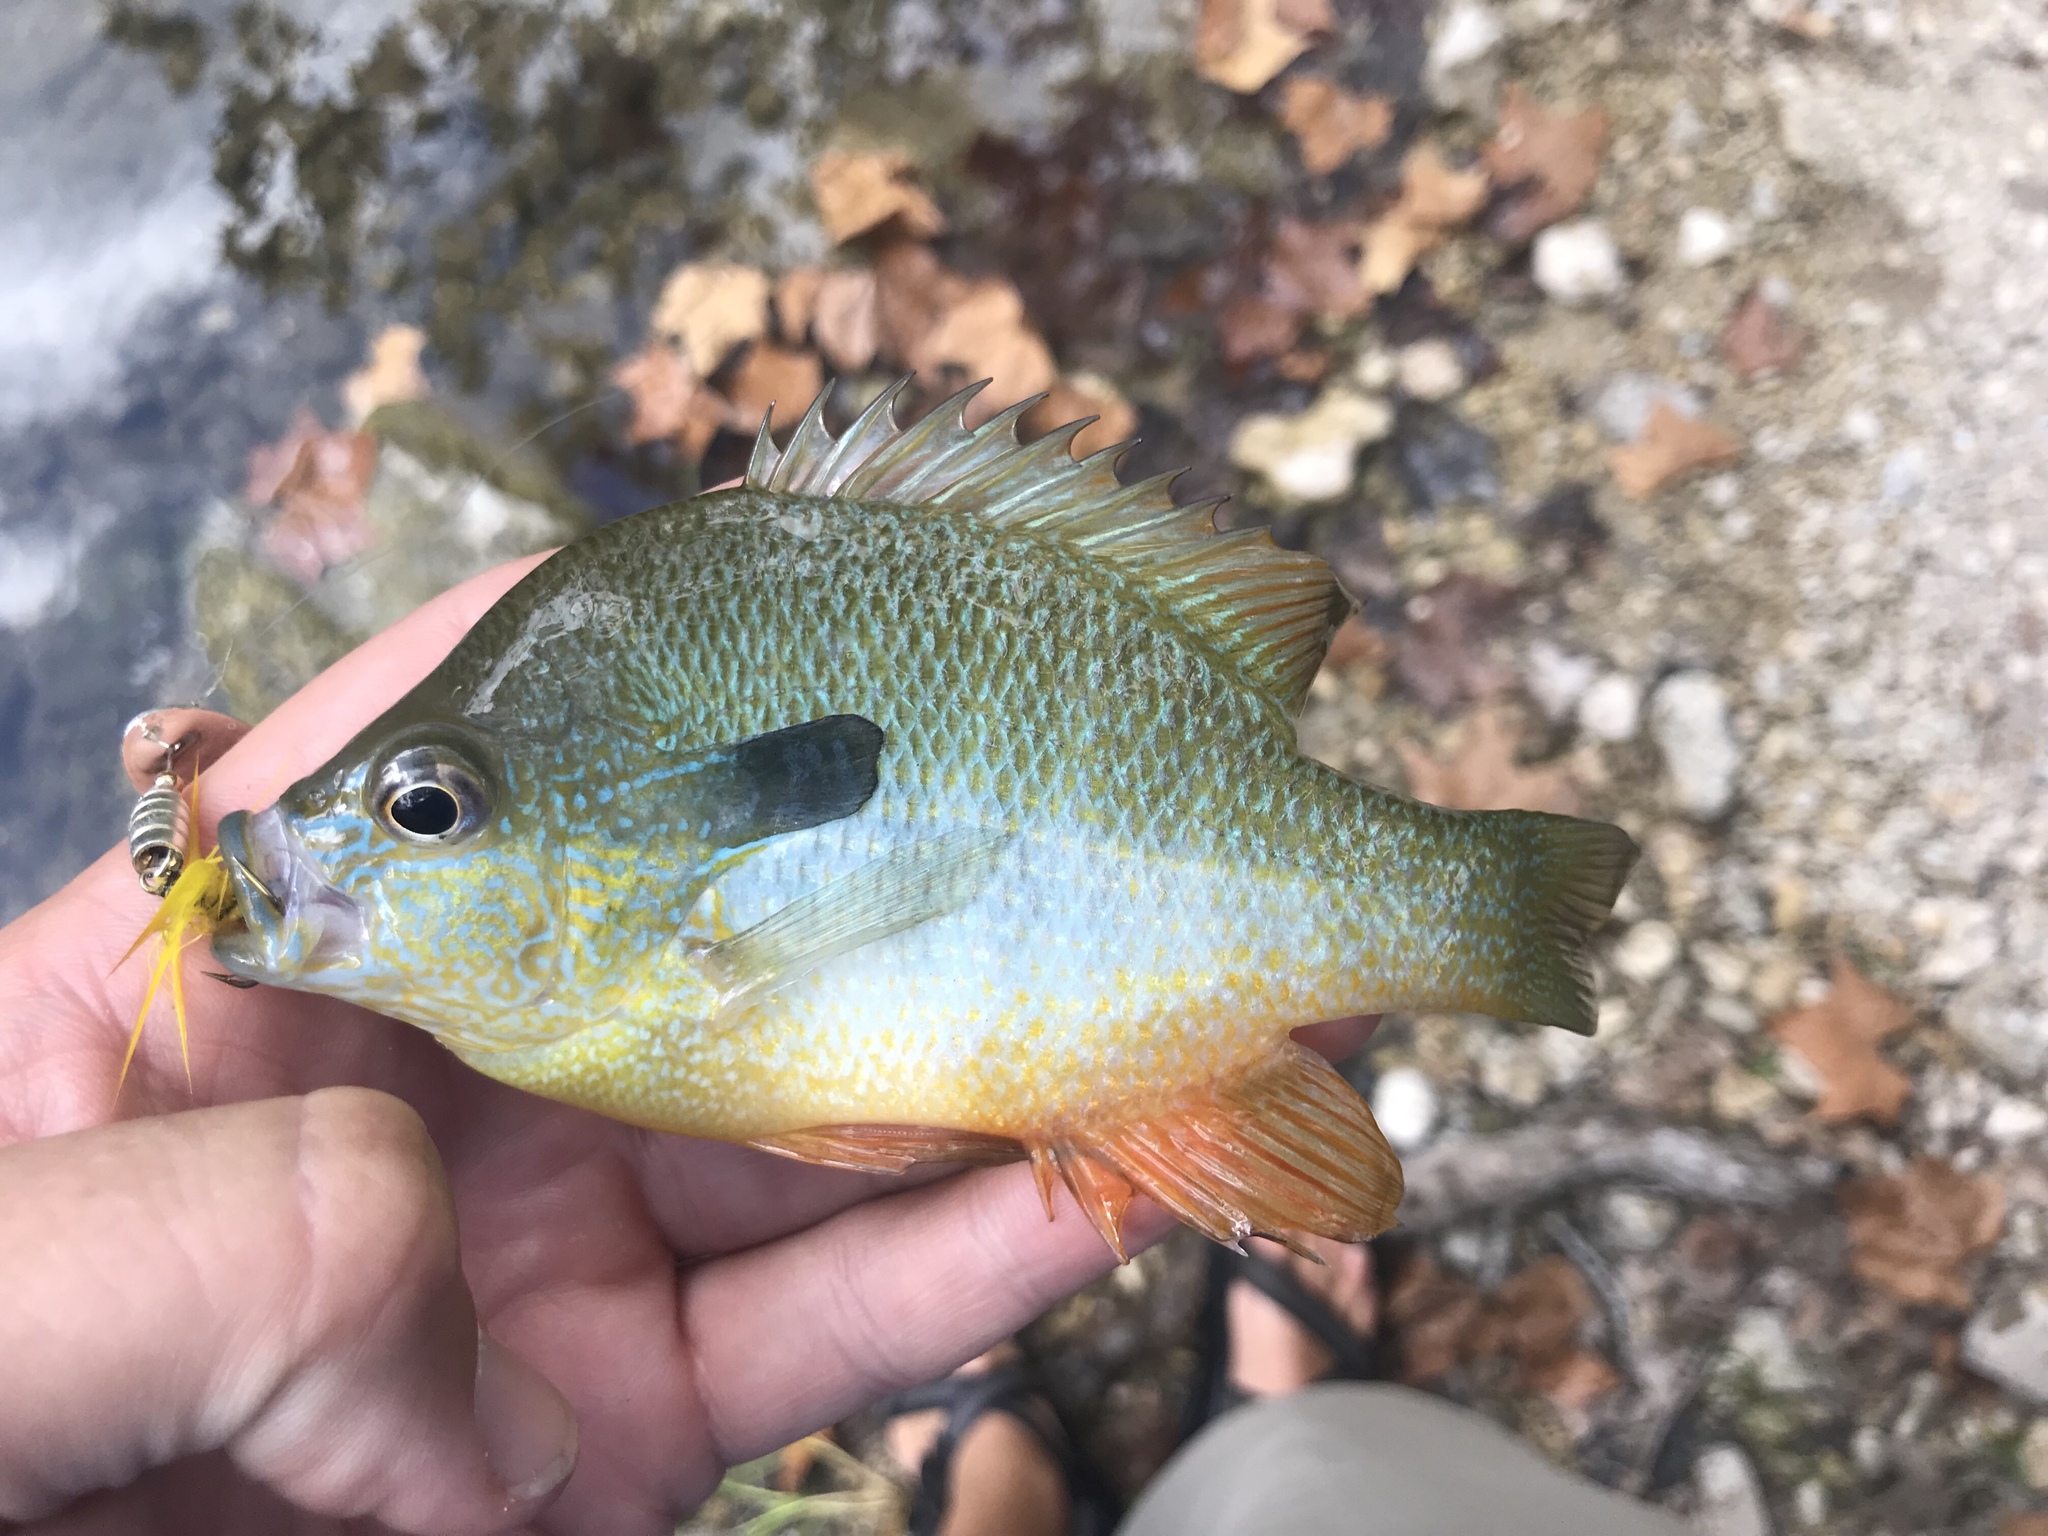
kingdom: Animalia
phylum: Chordata
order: Perciformes
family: Centrarchidae
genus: Lepomis
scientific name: Lepomis megalotis
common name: Longear sunfish
